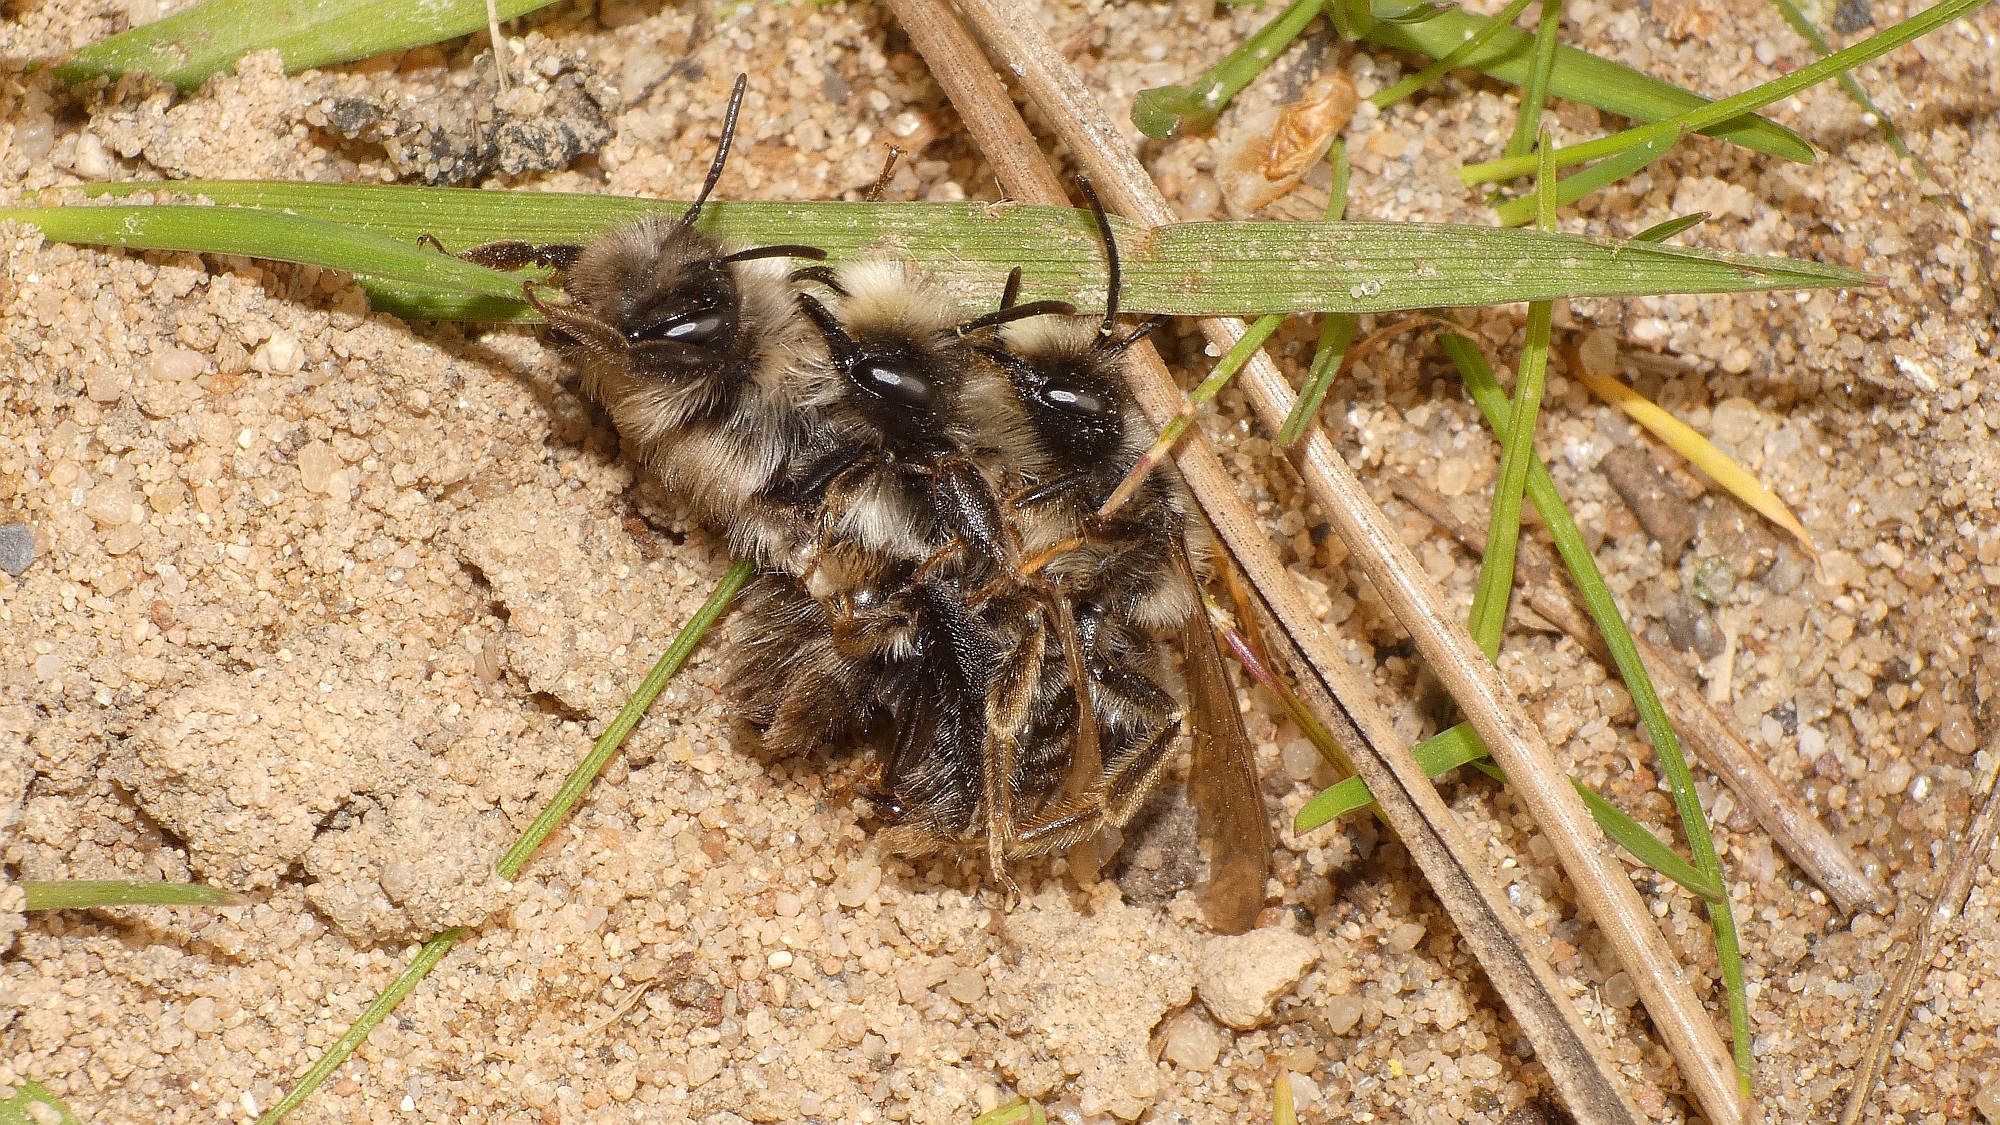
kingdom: Animalia
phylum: Arthropoda
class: Insecta
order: Hymenoptera
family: Andrenidae
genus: Andrena
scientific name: Andrena vaga
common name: Grey-backed mining bee
